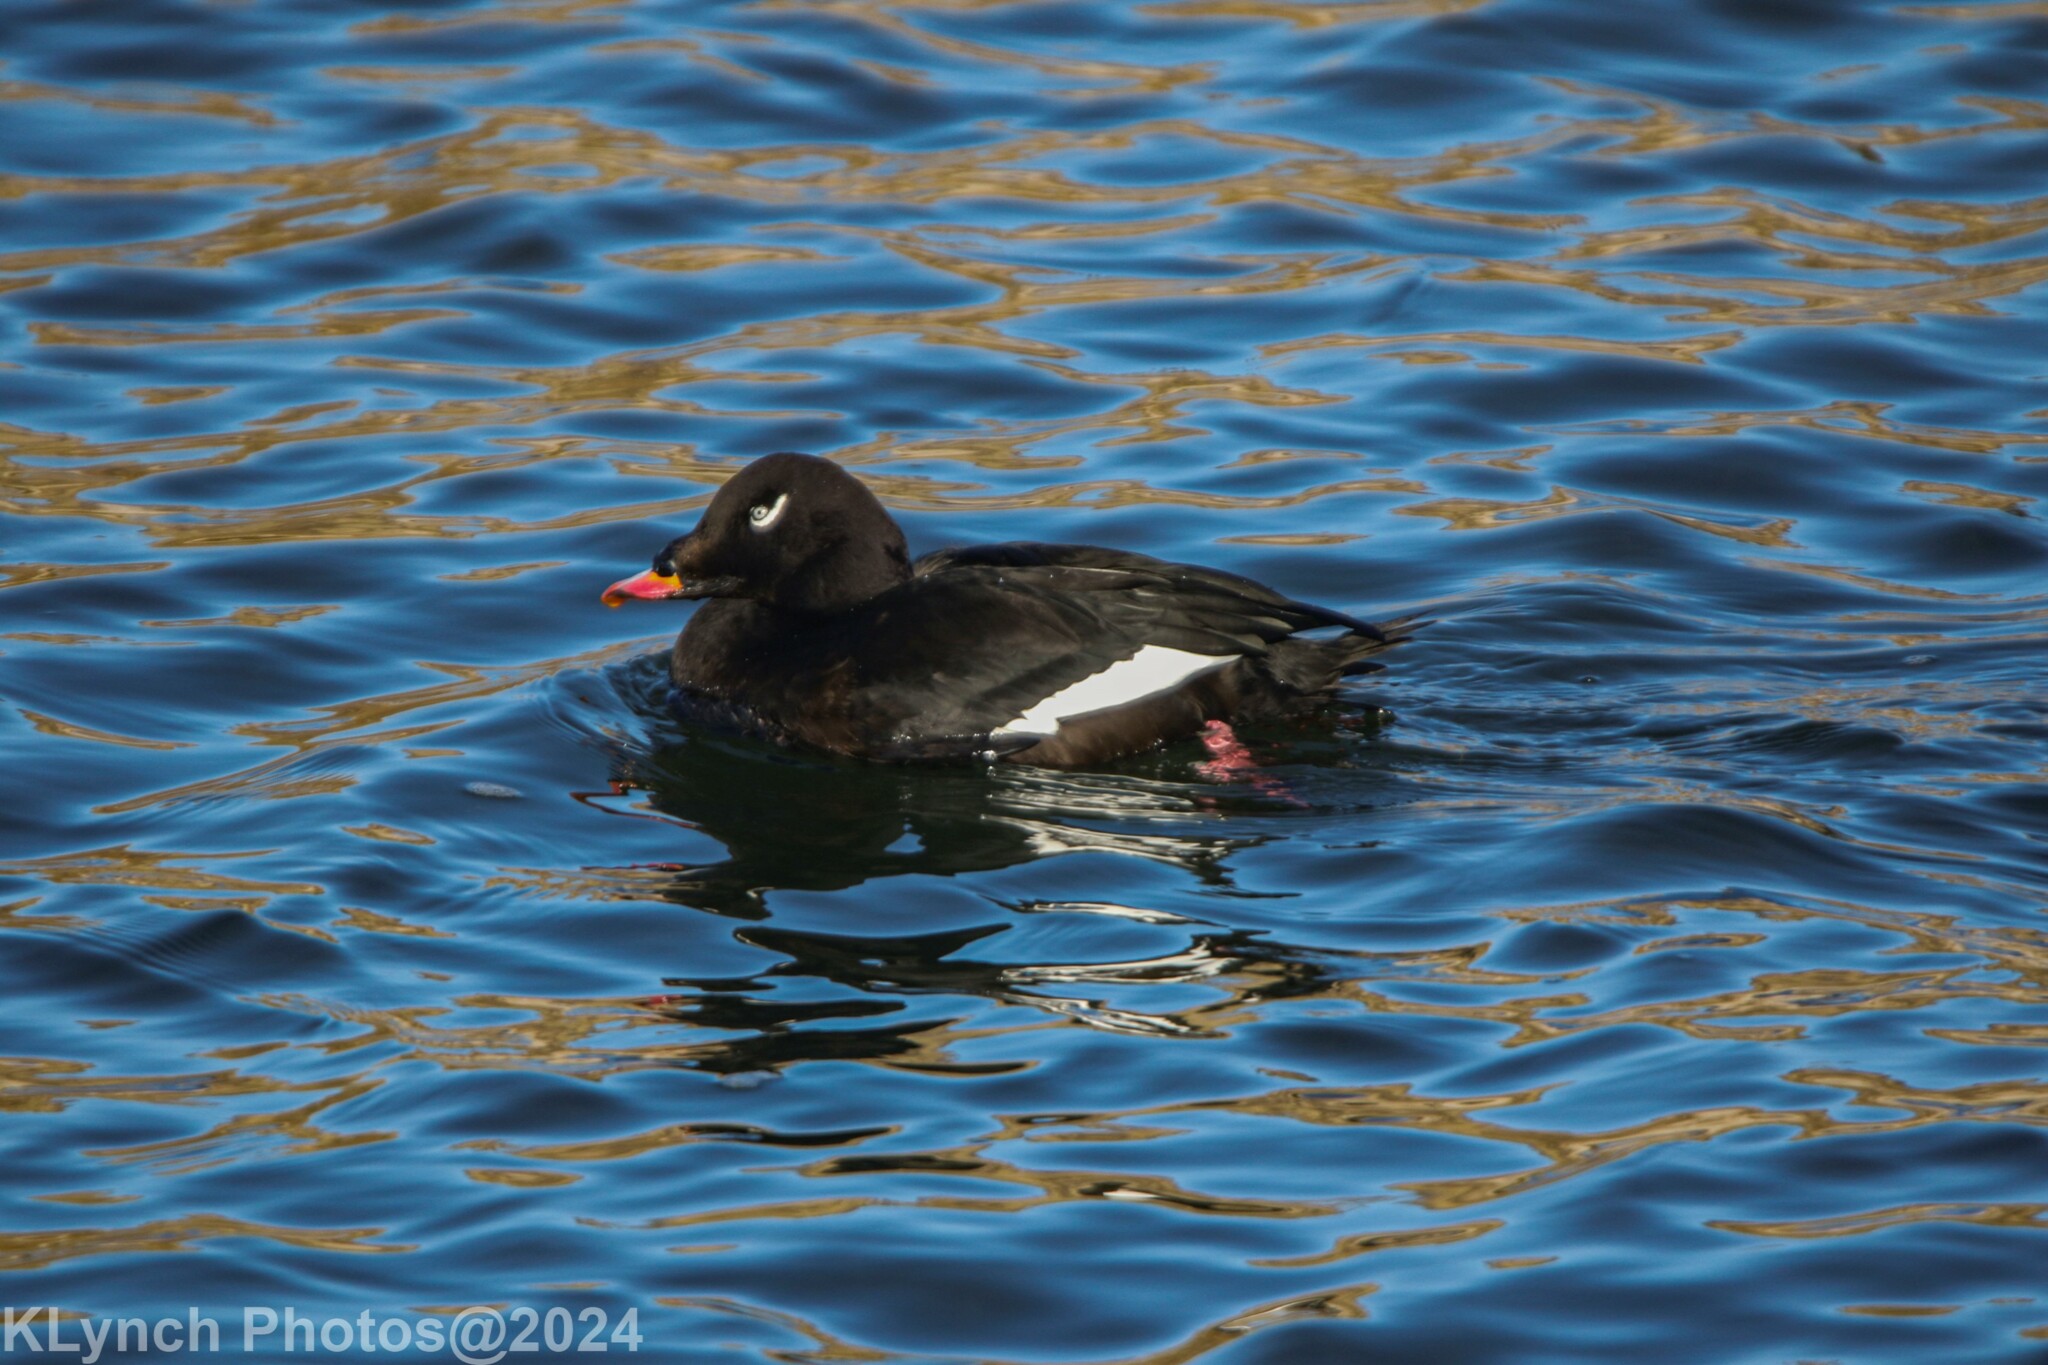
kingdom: Animalia
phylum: Chordata
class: Aves
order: Anseriformes
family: Anatidae
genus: Melanitta
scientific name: Melanitta deglandi
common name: White-winged scoter
